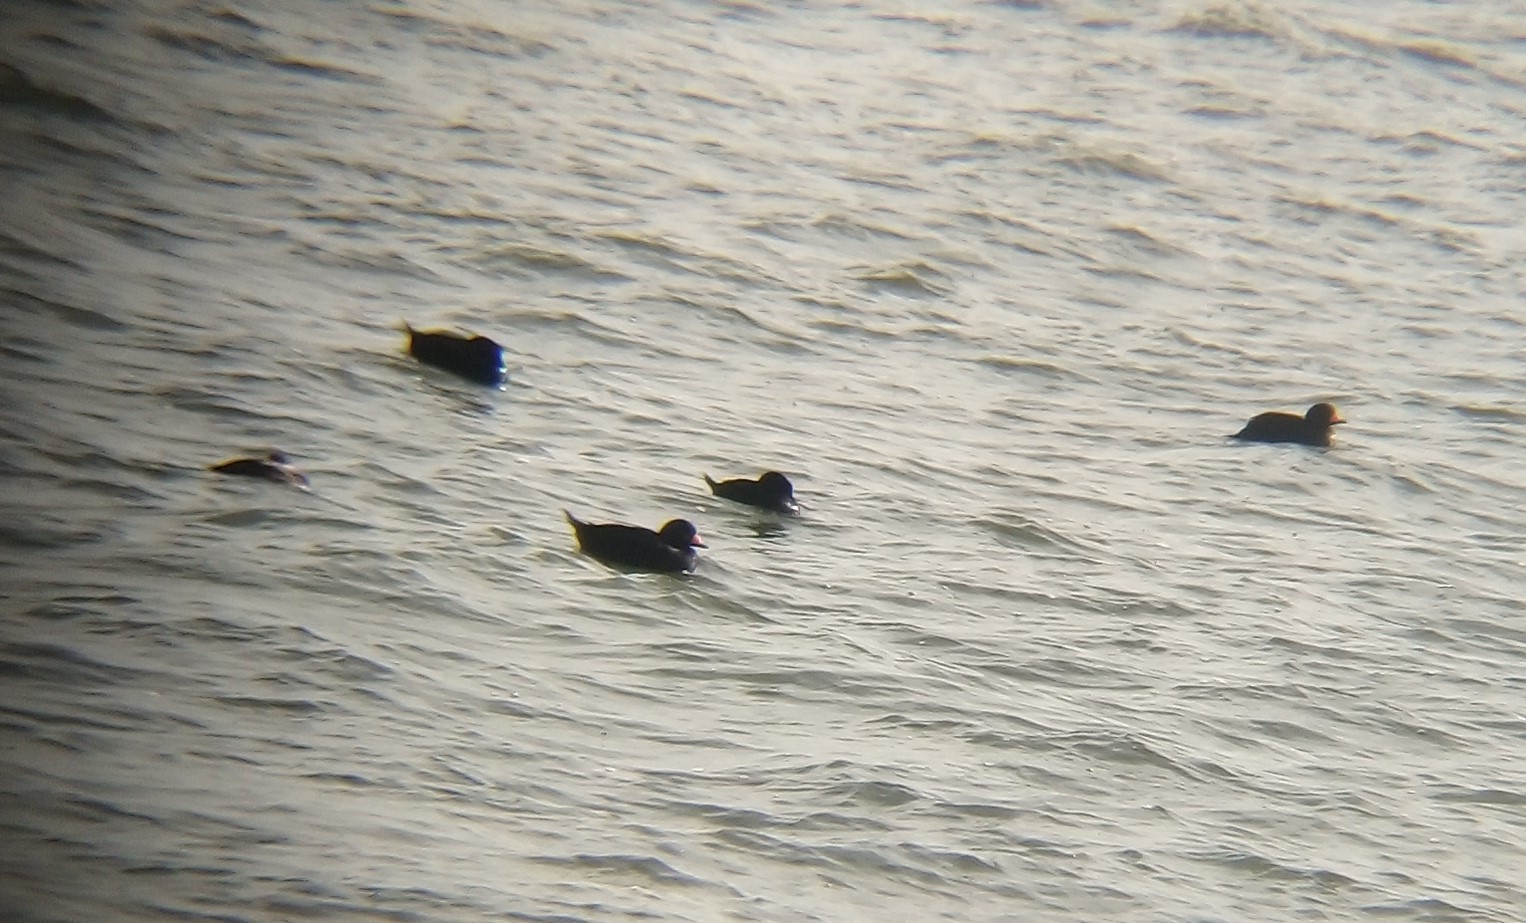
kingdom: Animalia
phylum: Chordata
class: Aves
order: Anseriformes
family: Anatidae
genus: Melanitta
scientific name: Melanitta americana
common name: Black scoter
